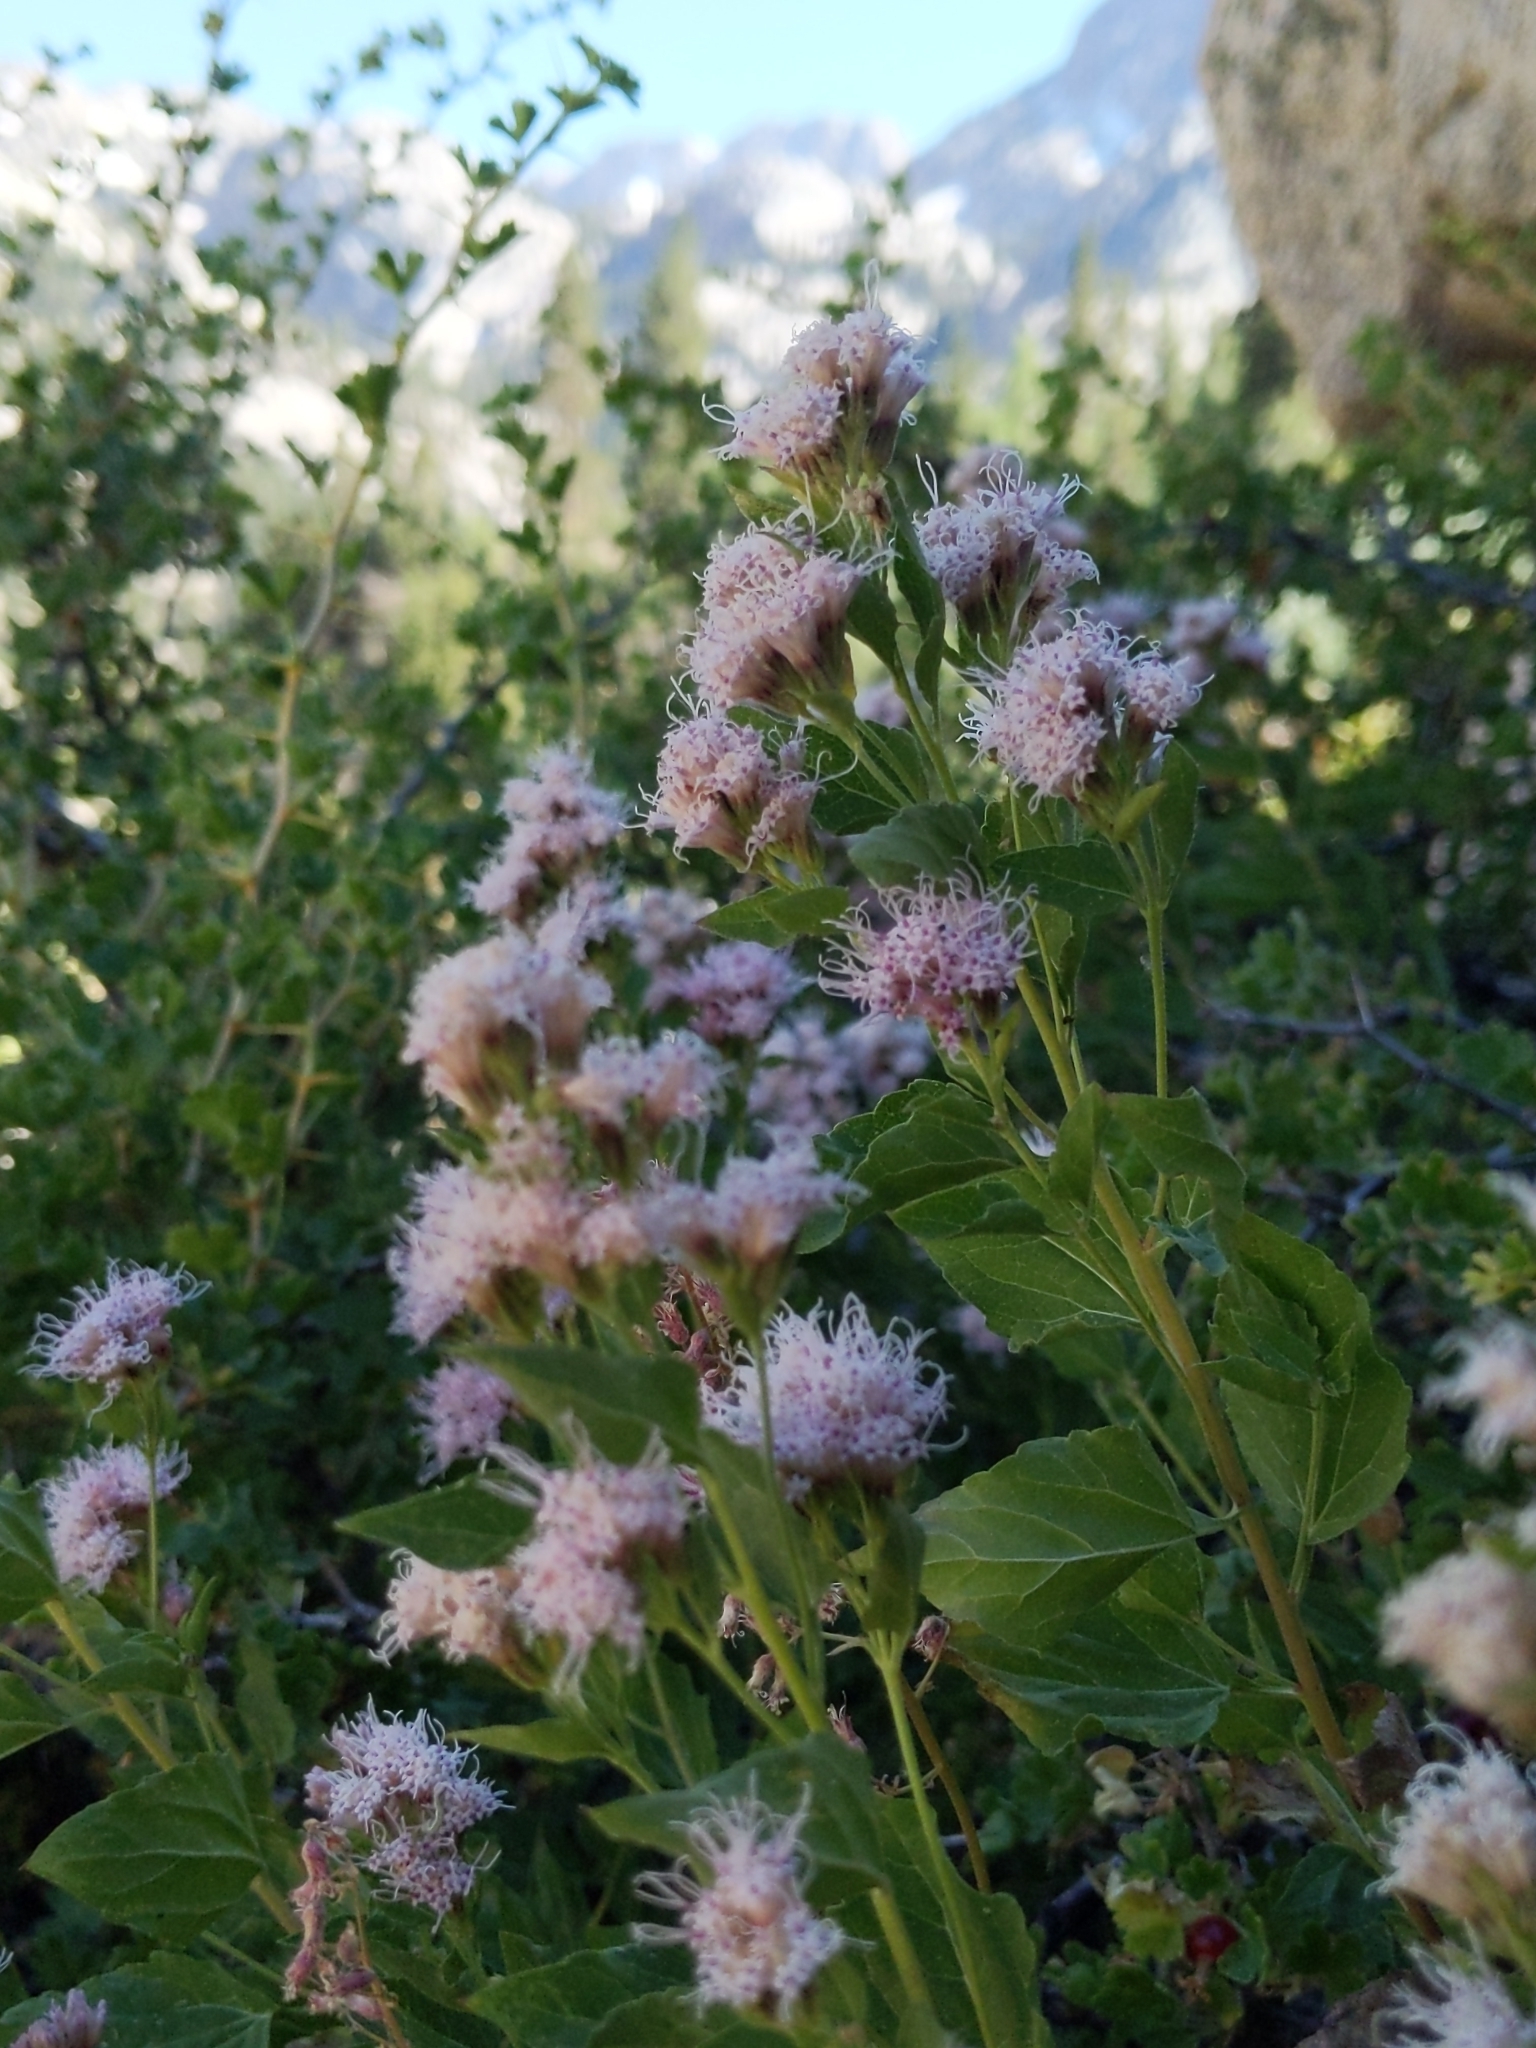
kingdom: Plantae
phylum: Tracheophyta
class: Magnoliopsida
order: Asterales
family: Asteraceae
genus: Ageratina
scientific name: Ageratina occidentalis
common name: Western snakeroot
